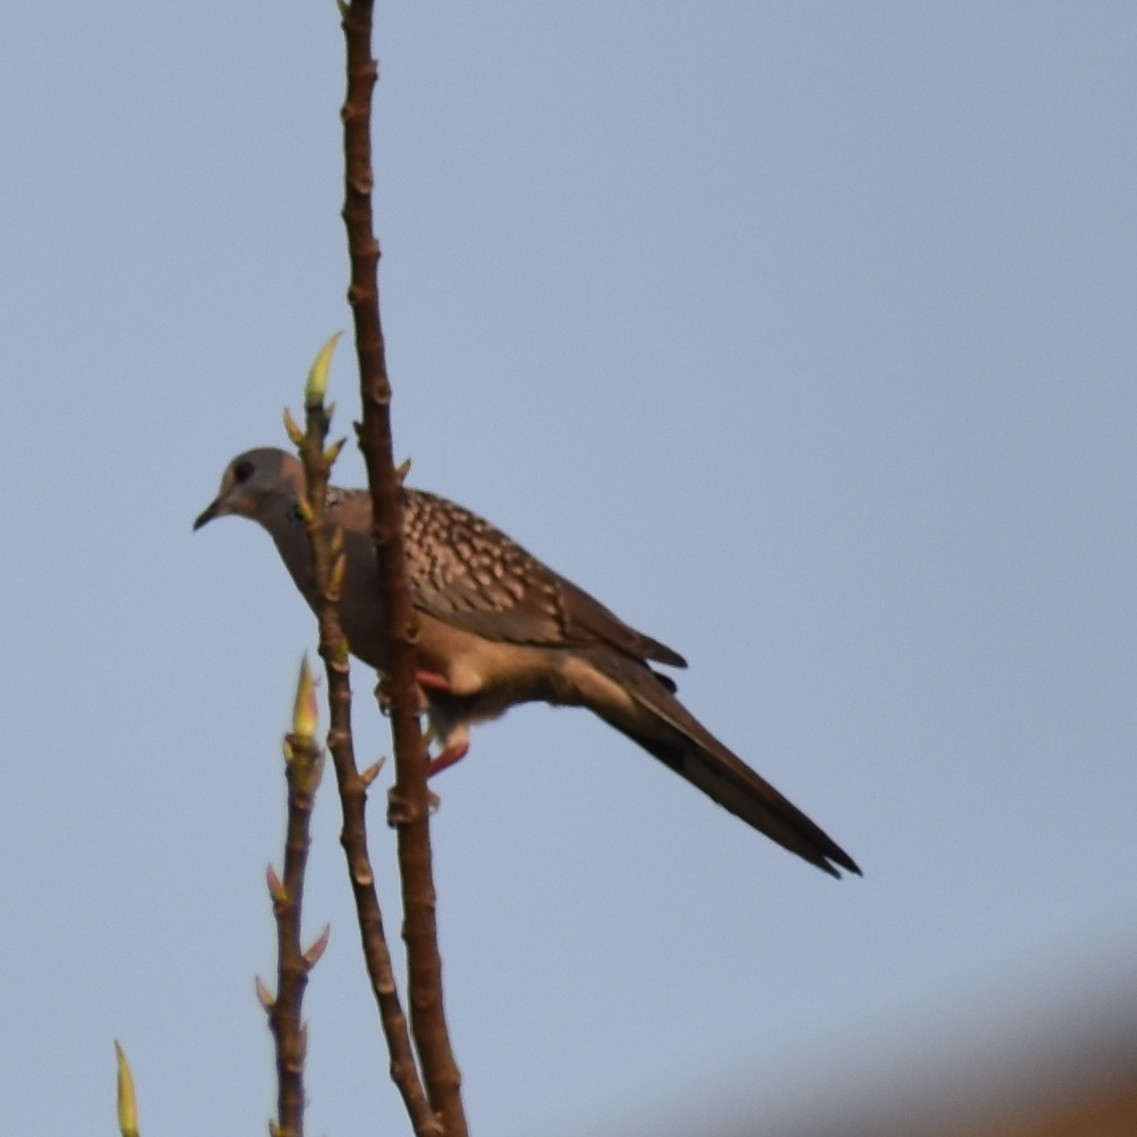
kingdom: Animalia
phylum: Chordata
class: Aves
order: Columbiformes
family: Columbidae
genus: Spilopelia
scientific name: Spilopelia chinensis
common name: Spotted dove
